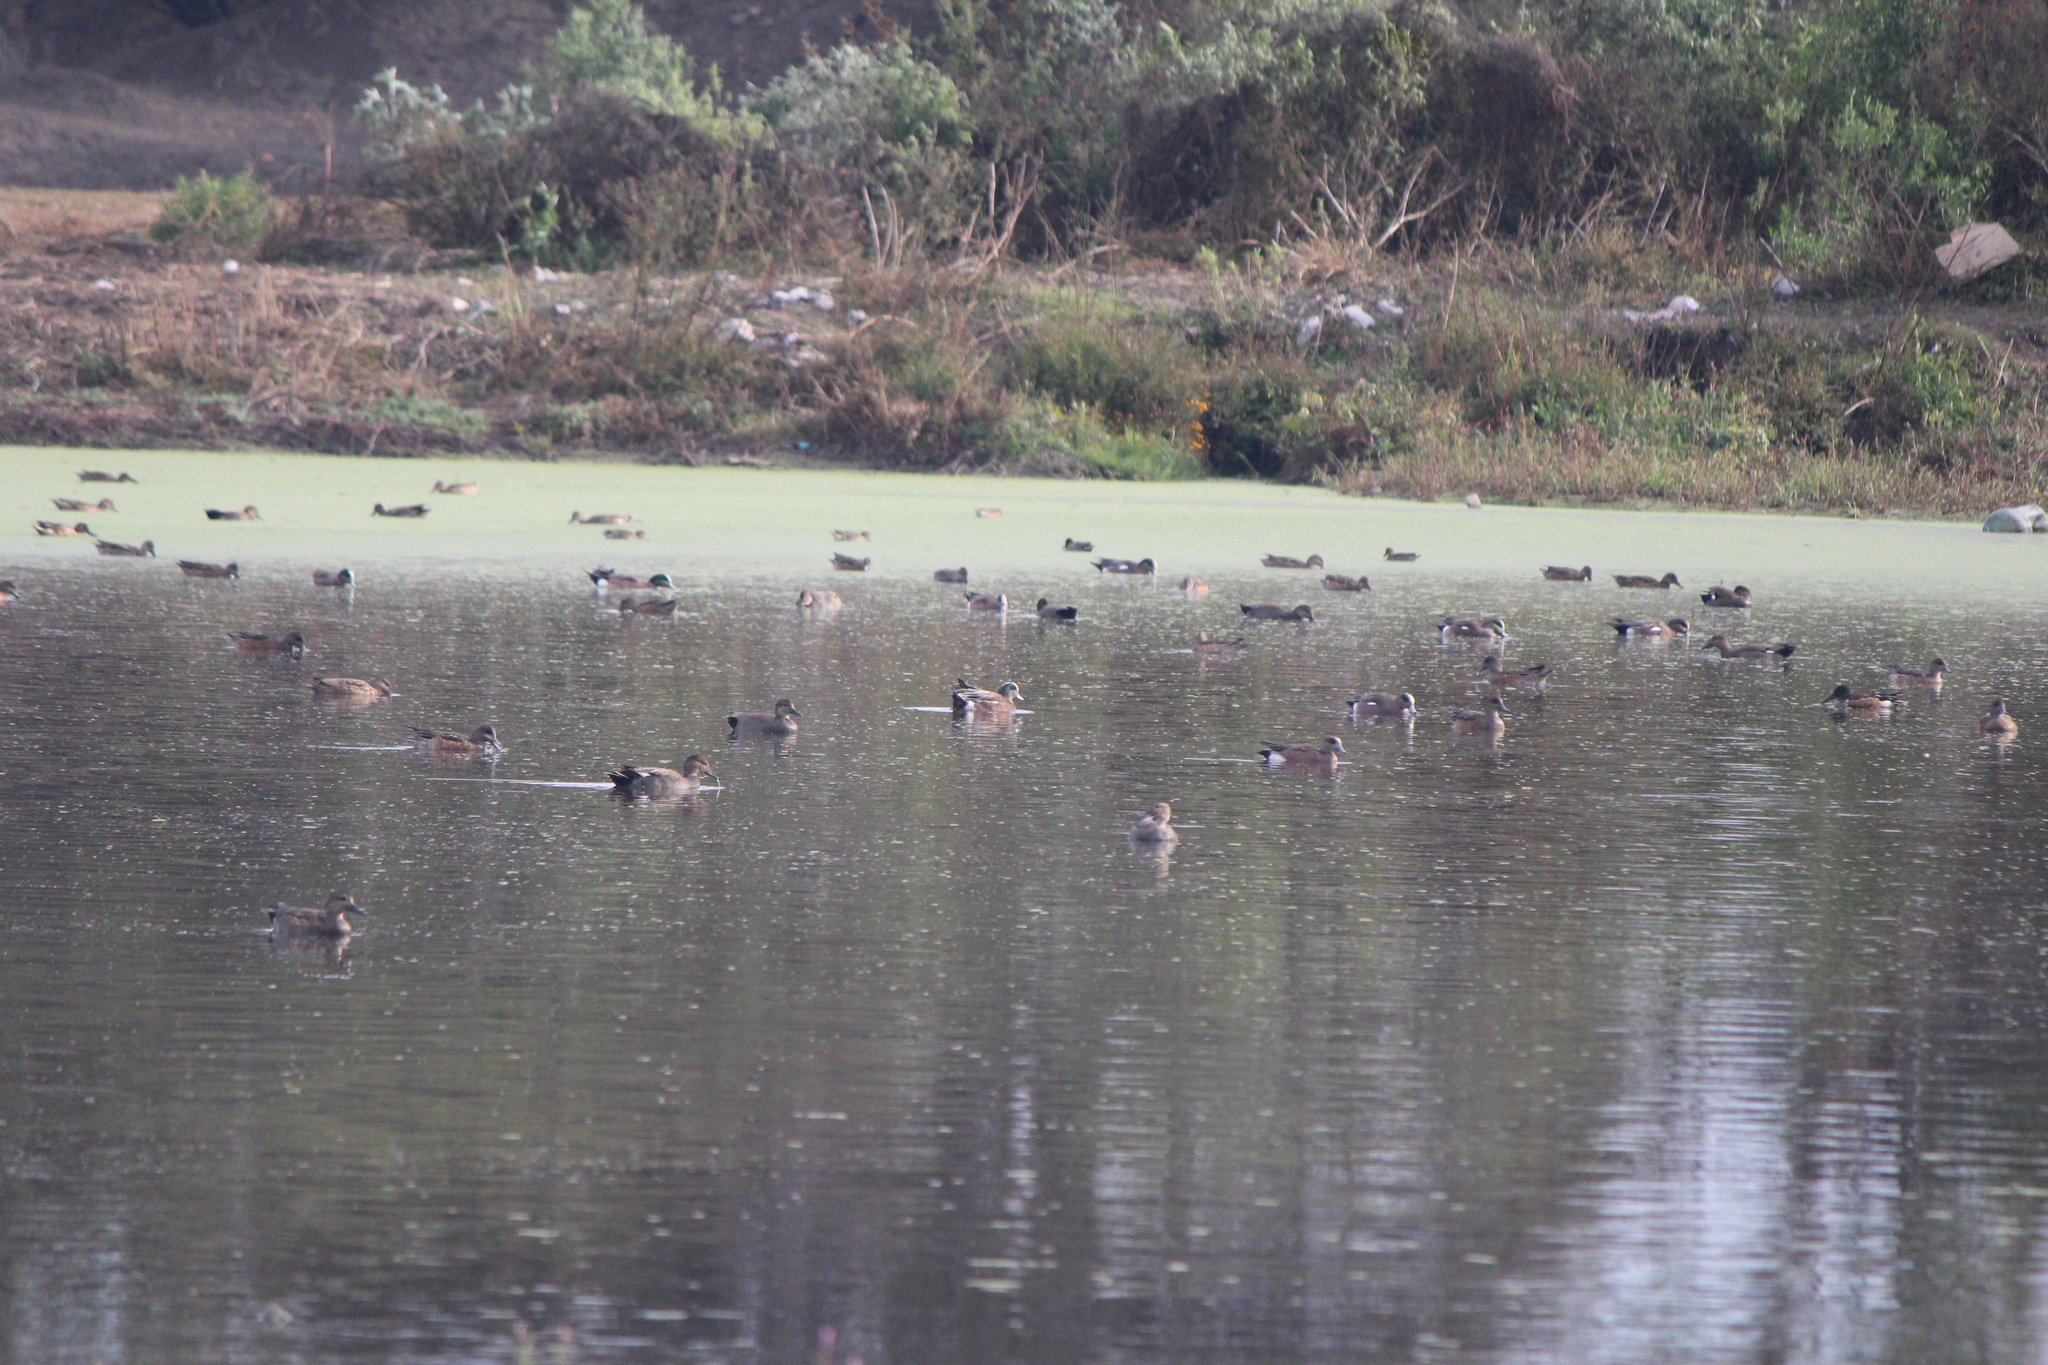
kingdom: Animalia
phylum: Chordata
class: Aves
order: Anseriformes
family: Anatidae
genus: Mareca
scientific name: Mareca americana
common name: American wigeon
